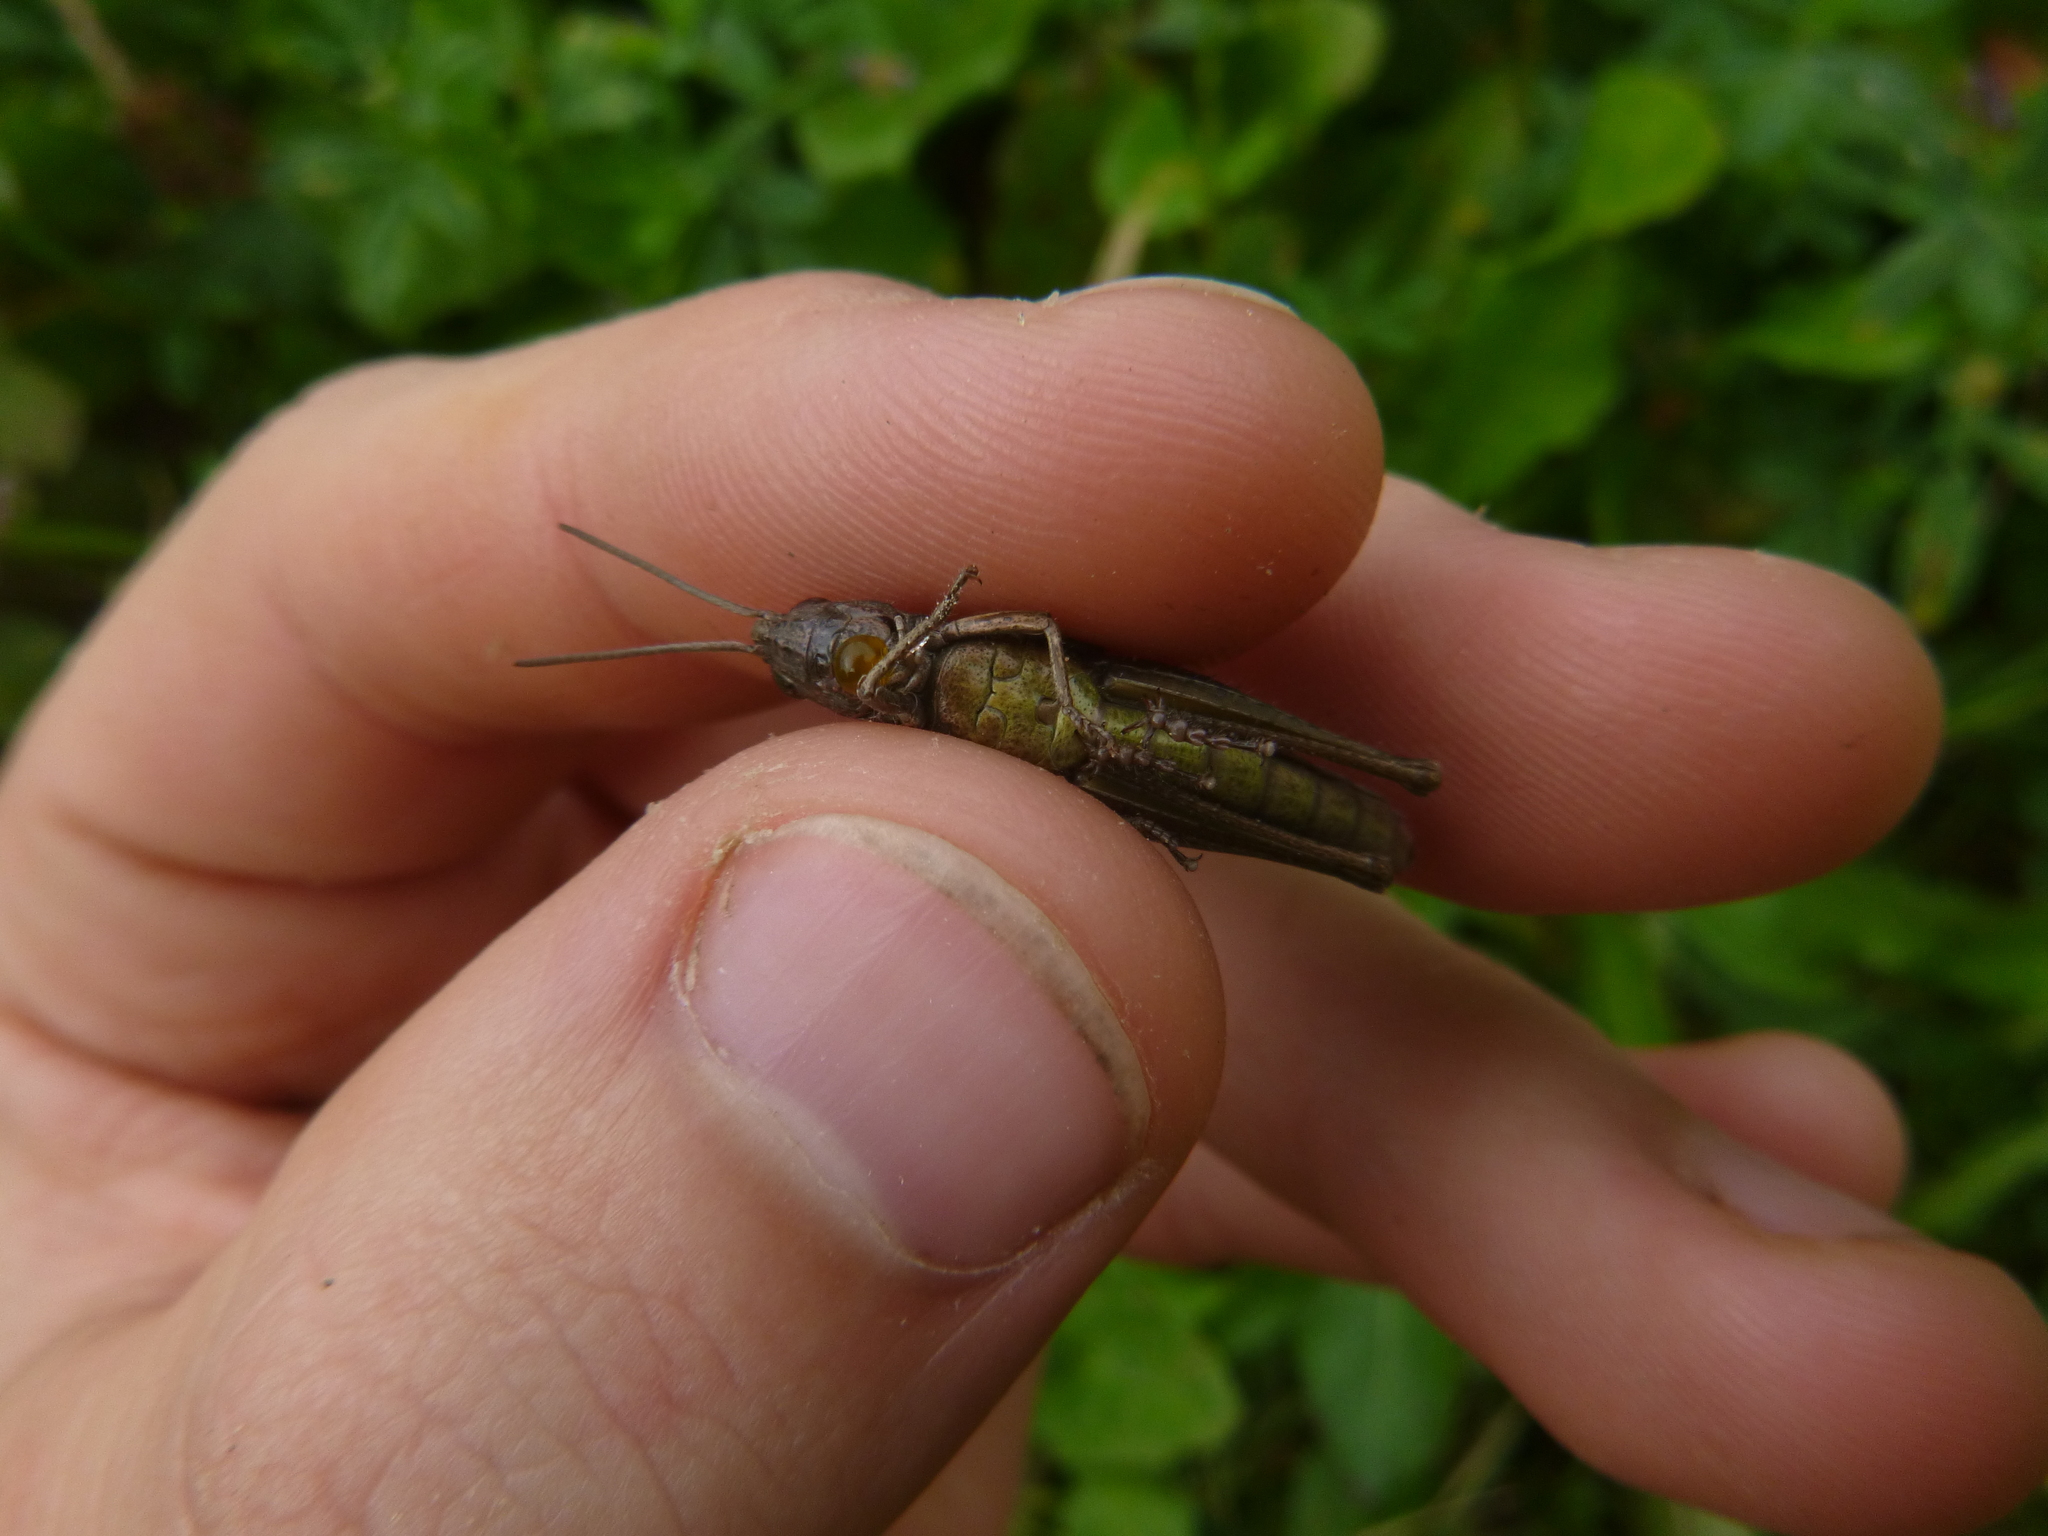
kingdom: Animalia
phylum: Arthropoda
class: Insecta
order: Orthoptera
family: Acrididae
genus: Chorthippus
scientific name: Chorthippus dorsatus
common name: Steppe grasshopper
